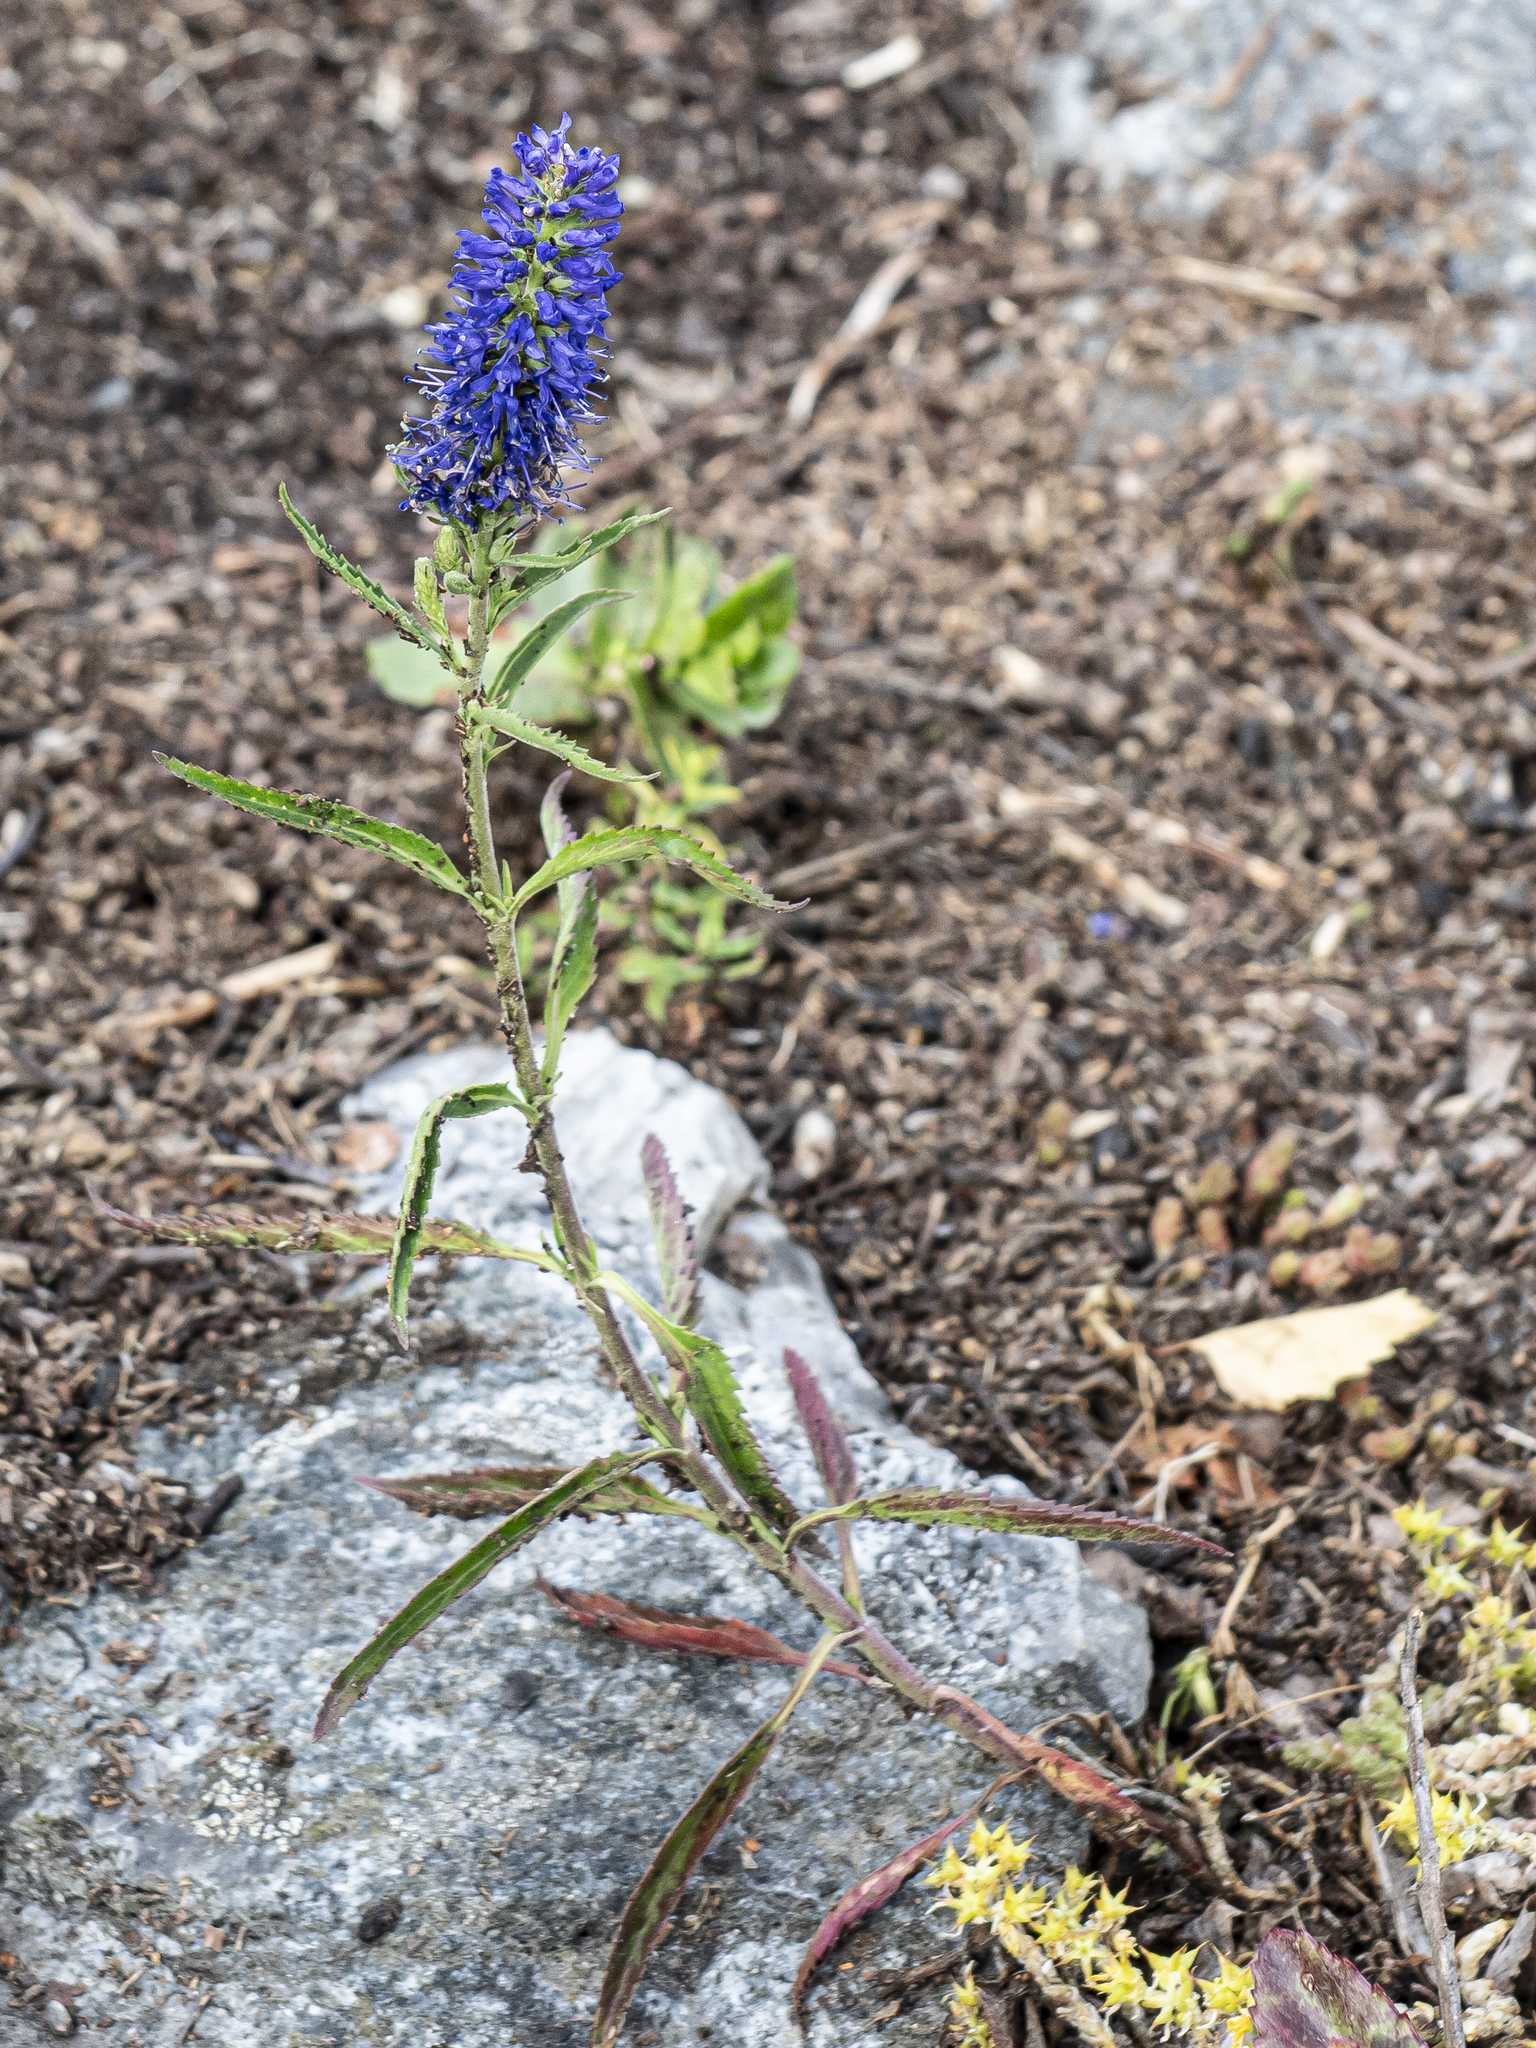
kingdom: Plantae
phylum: Tracheophyta
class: Magnoliopsida
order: Lamiales
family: Plantaginaceae
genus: Veronica
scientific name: Veronica longifolia
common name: Garden speedwell
